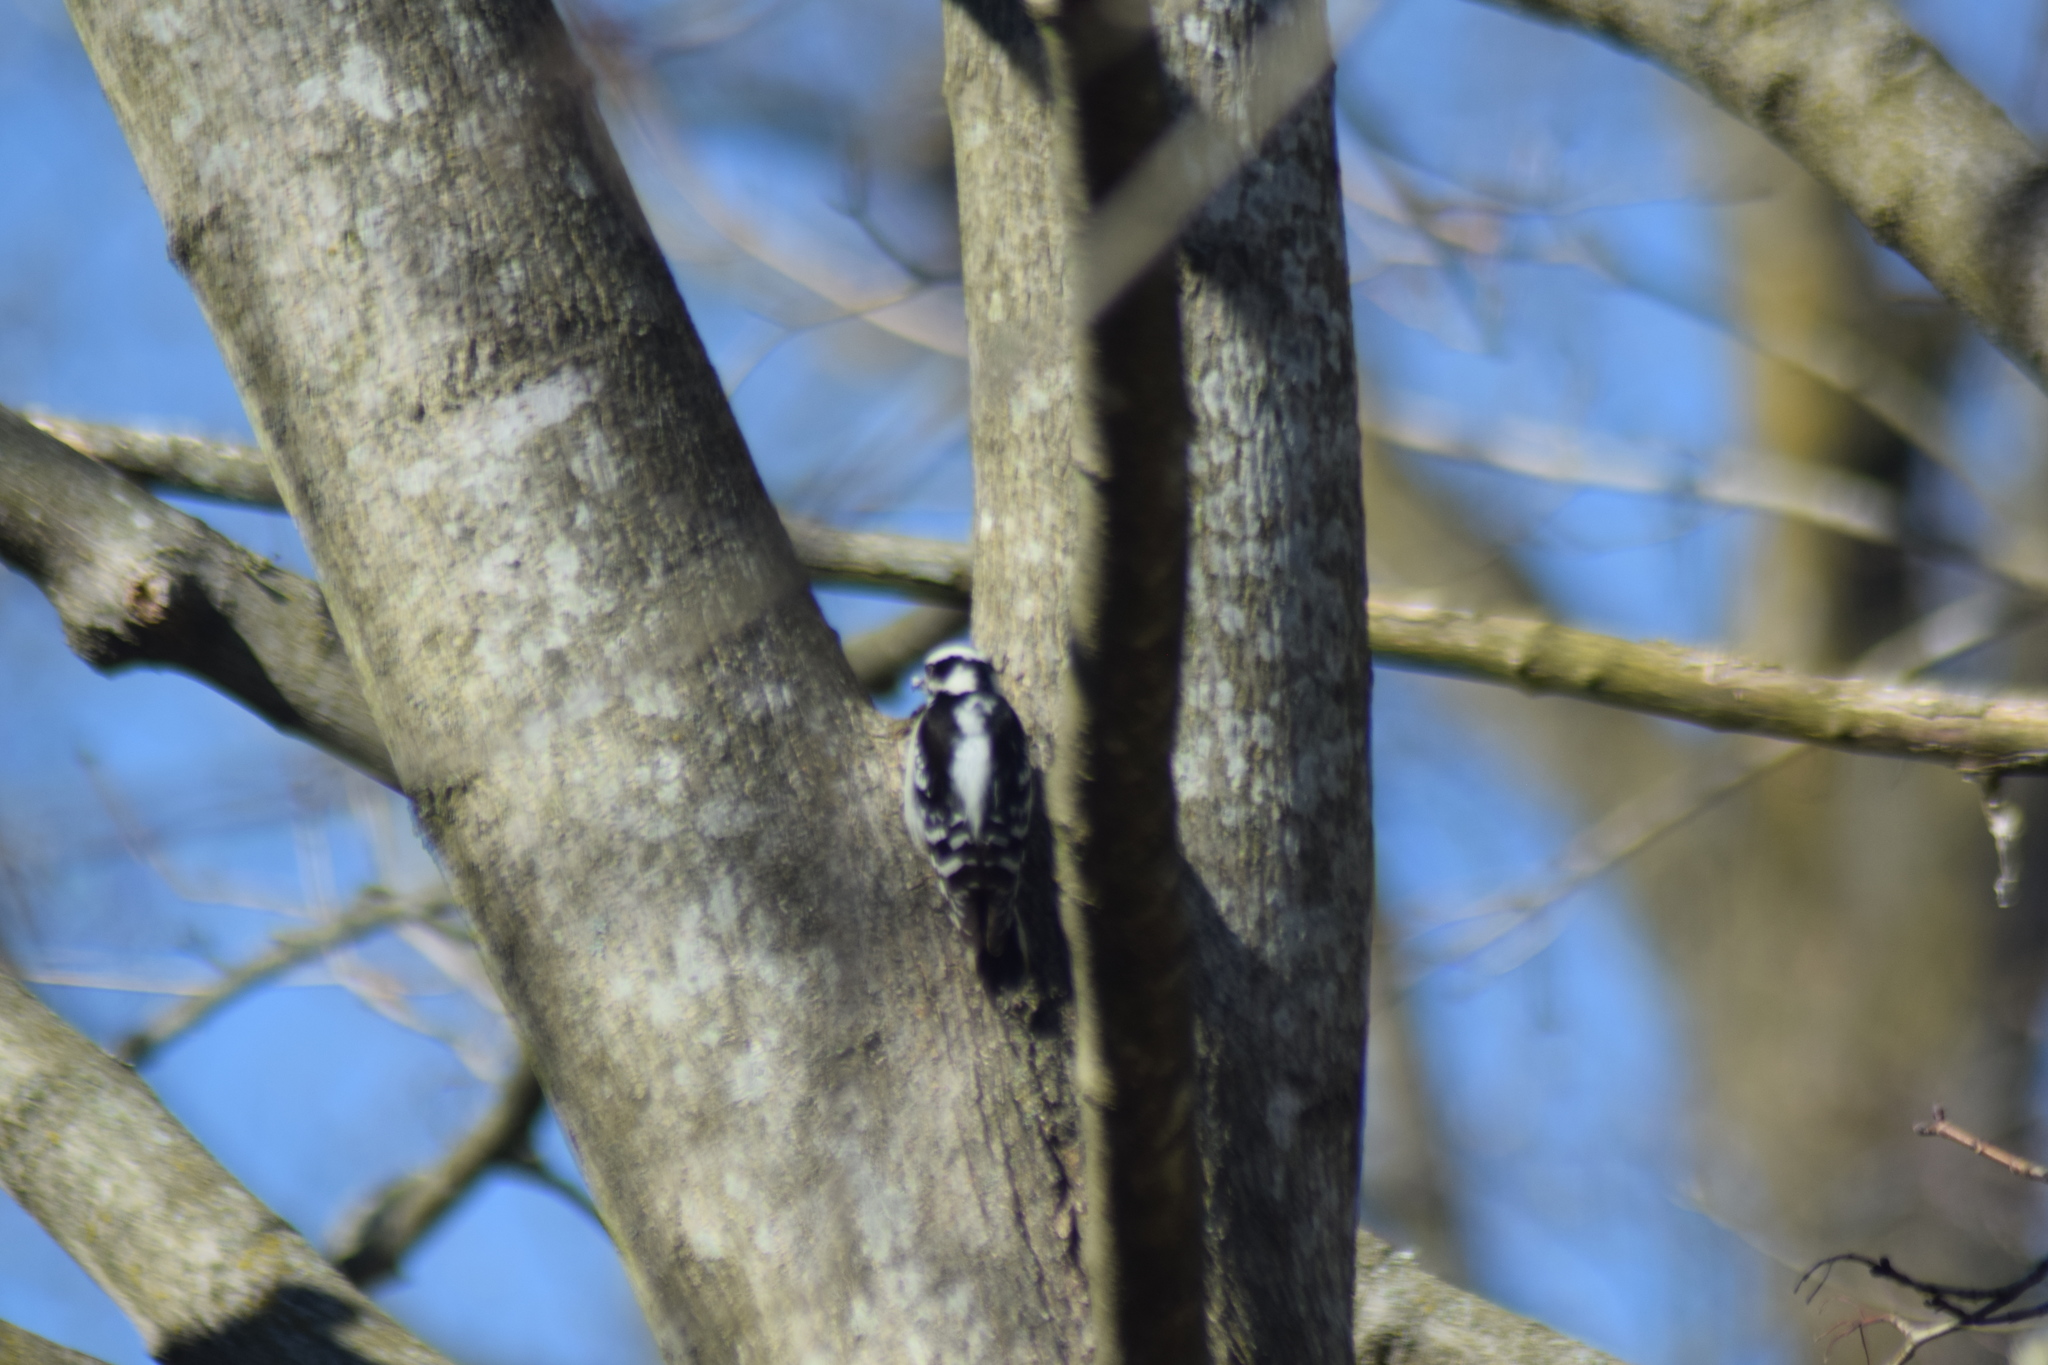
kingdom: Animalia
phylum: Chordata
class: Aves
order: Piciformes
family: Picidae
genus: Dryobates
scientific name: Dryobates pubescens
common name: Downy woodpecker
